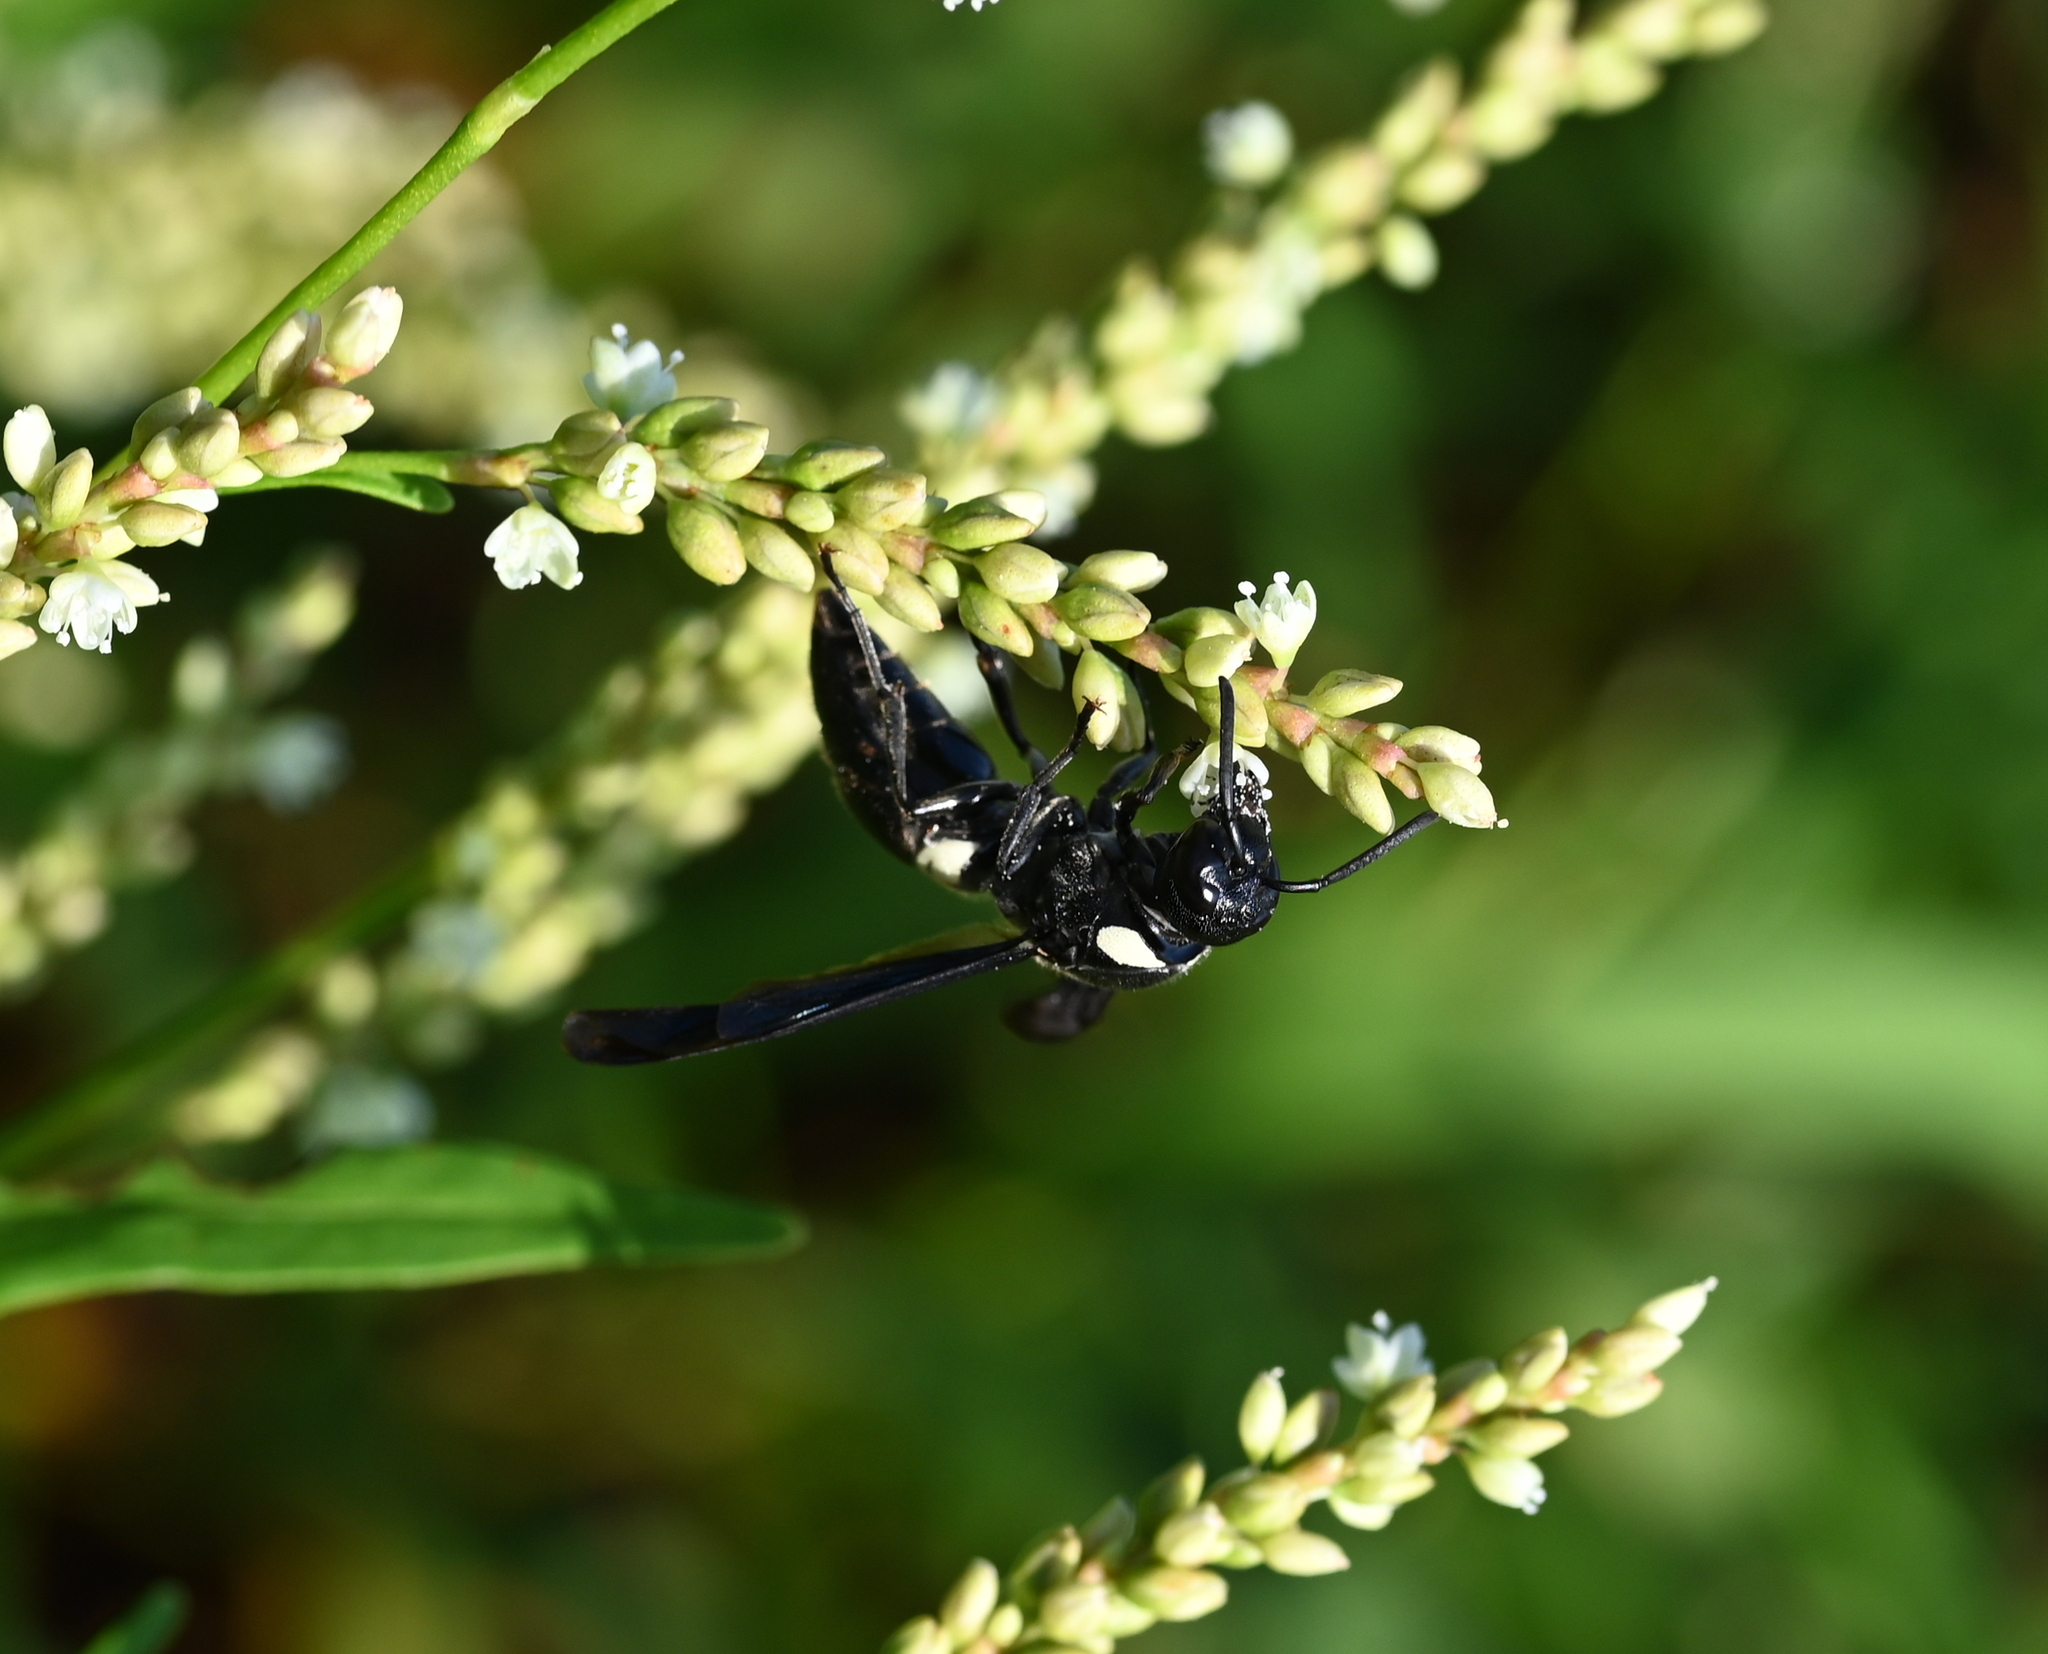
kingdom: Animalia
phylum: Arthropoda
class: Insecta
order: Hymenoptera
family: Eumenidae
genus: Monobia
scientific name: Monobia quadridens
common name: Four-toothed mason wasp
